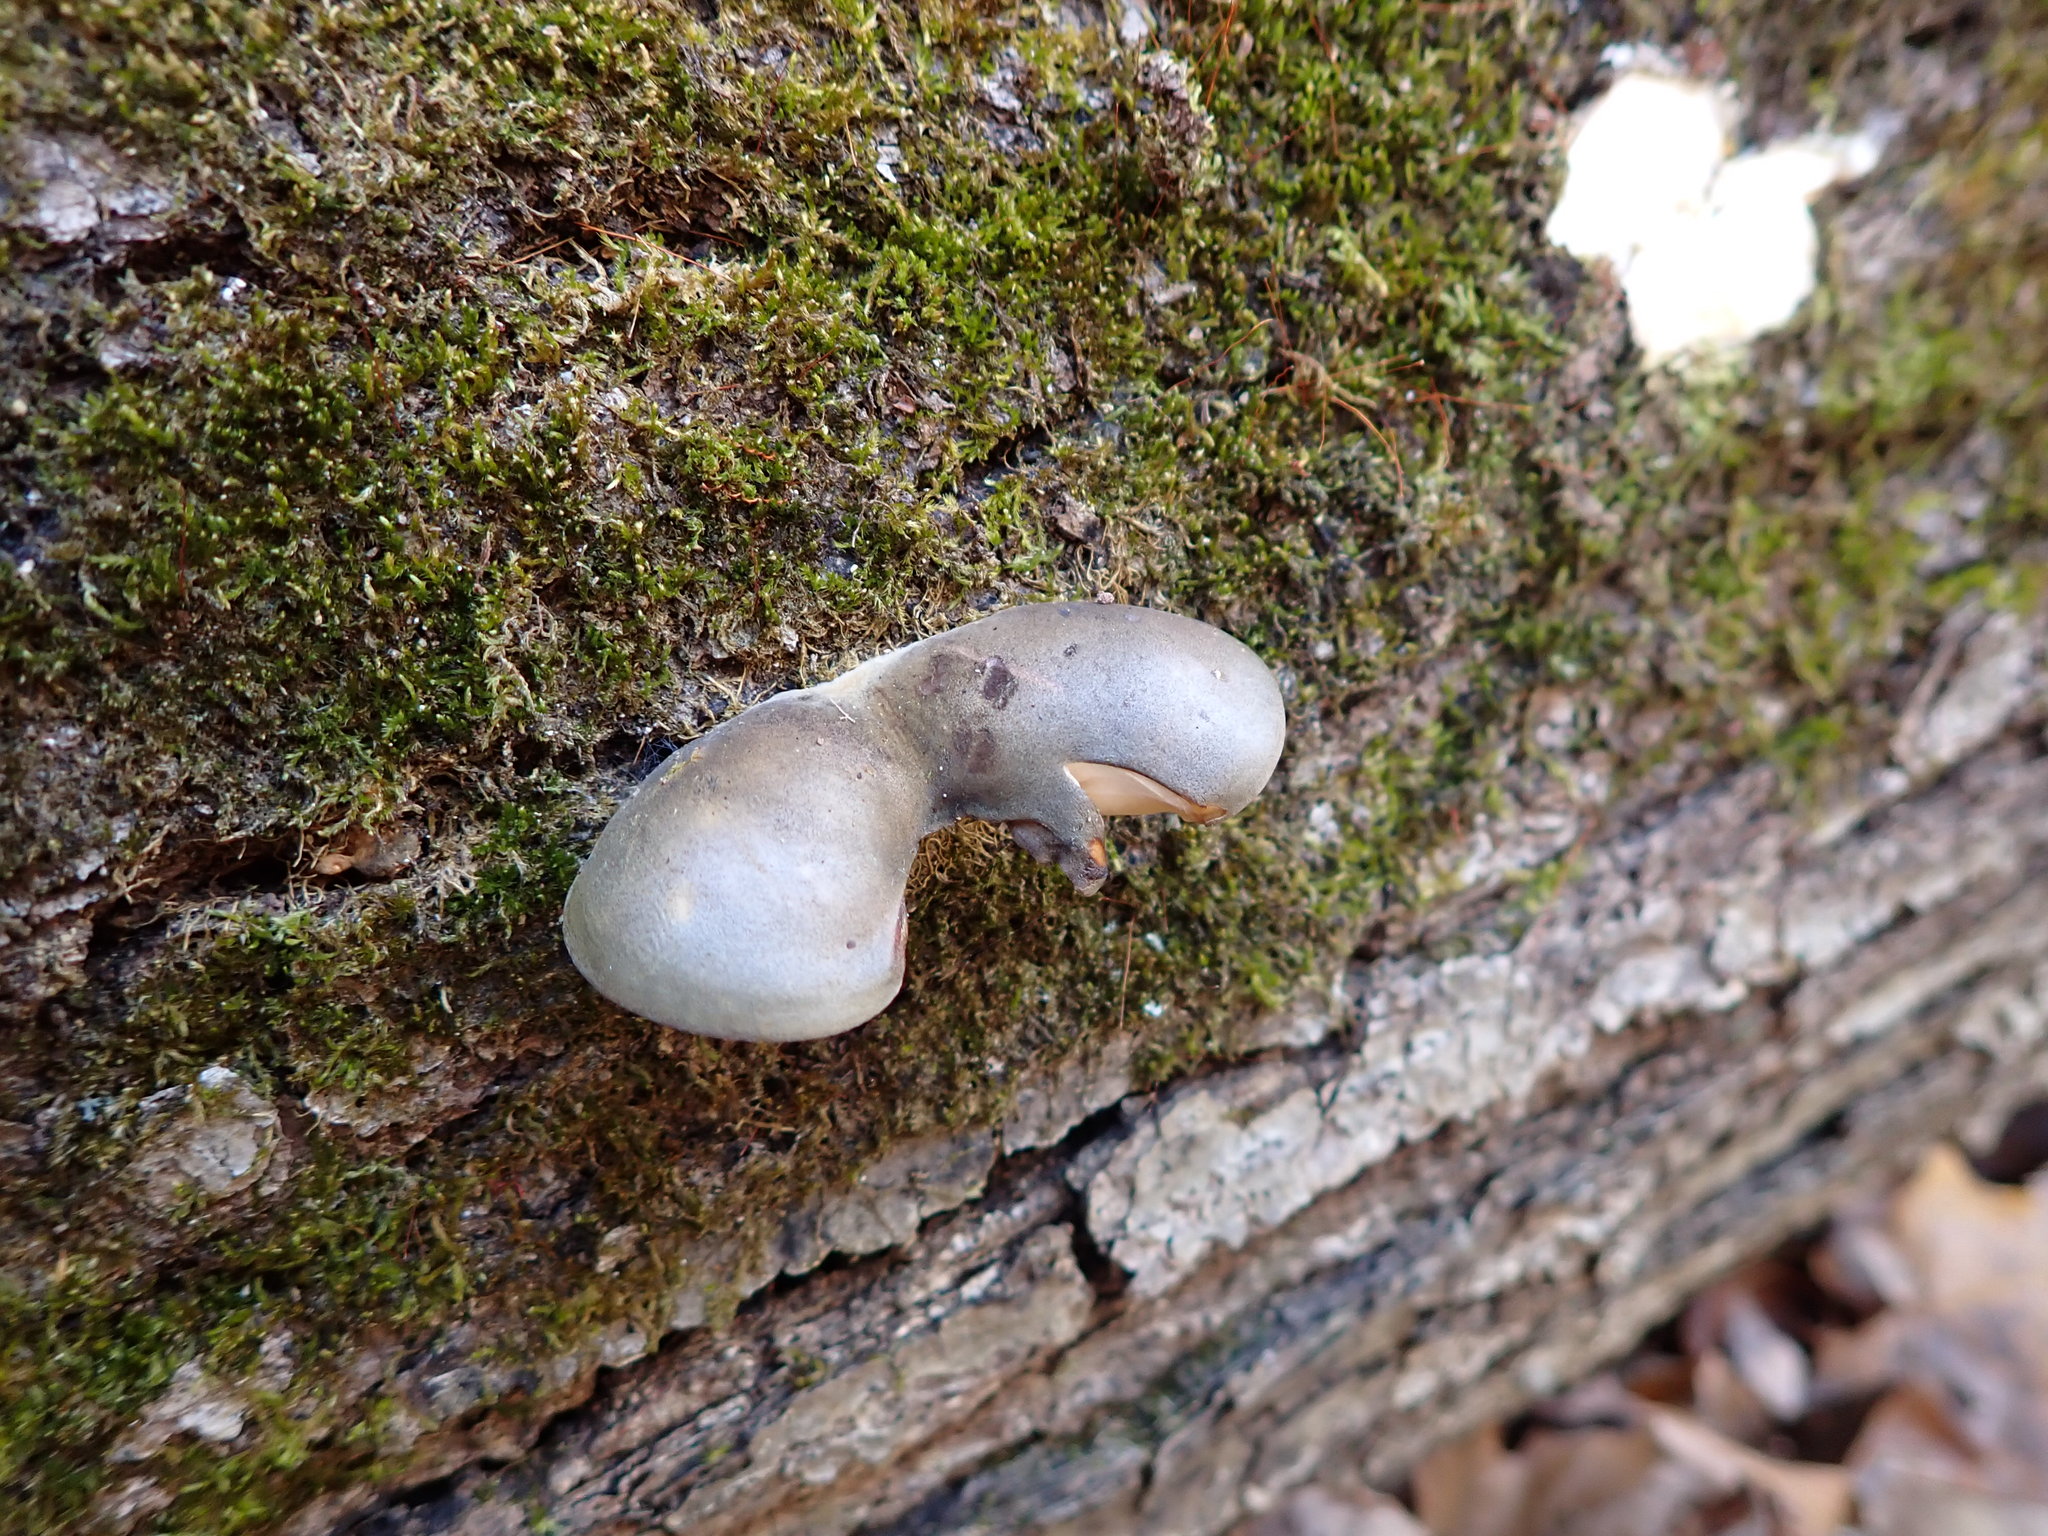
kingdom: Fungi
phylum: Basidiomycota
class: Agaricomycetes
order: Agaricales
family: Sarcomyxaceae
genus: Sarcomyxa
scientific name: Sarcomyxa serotina
